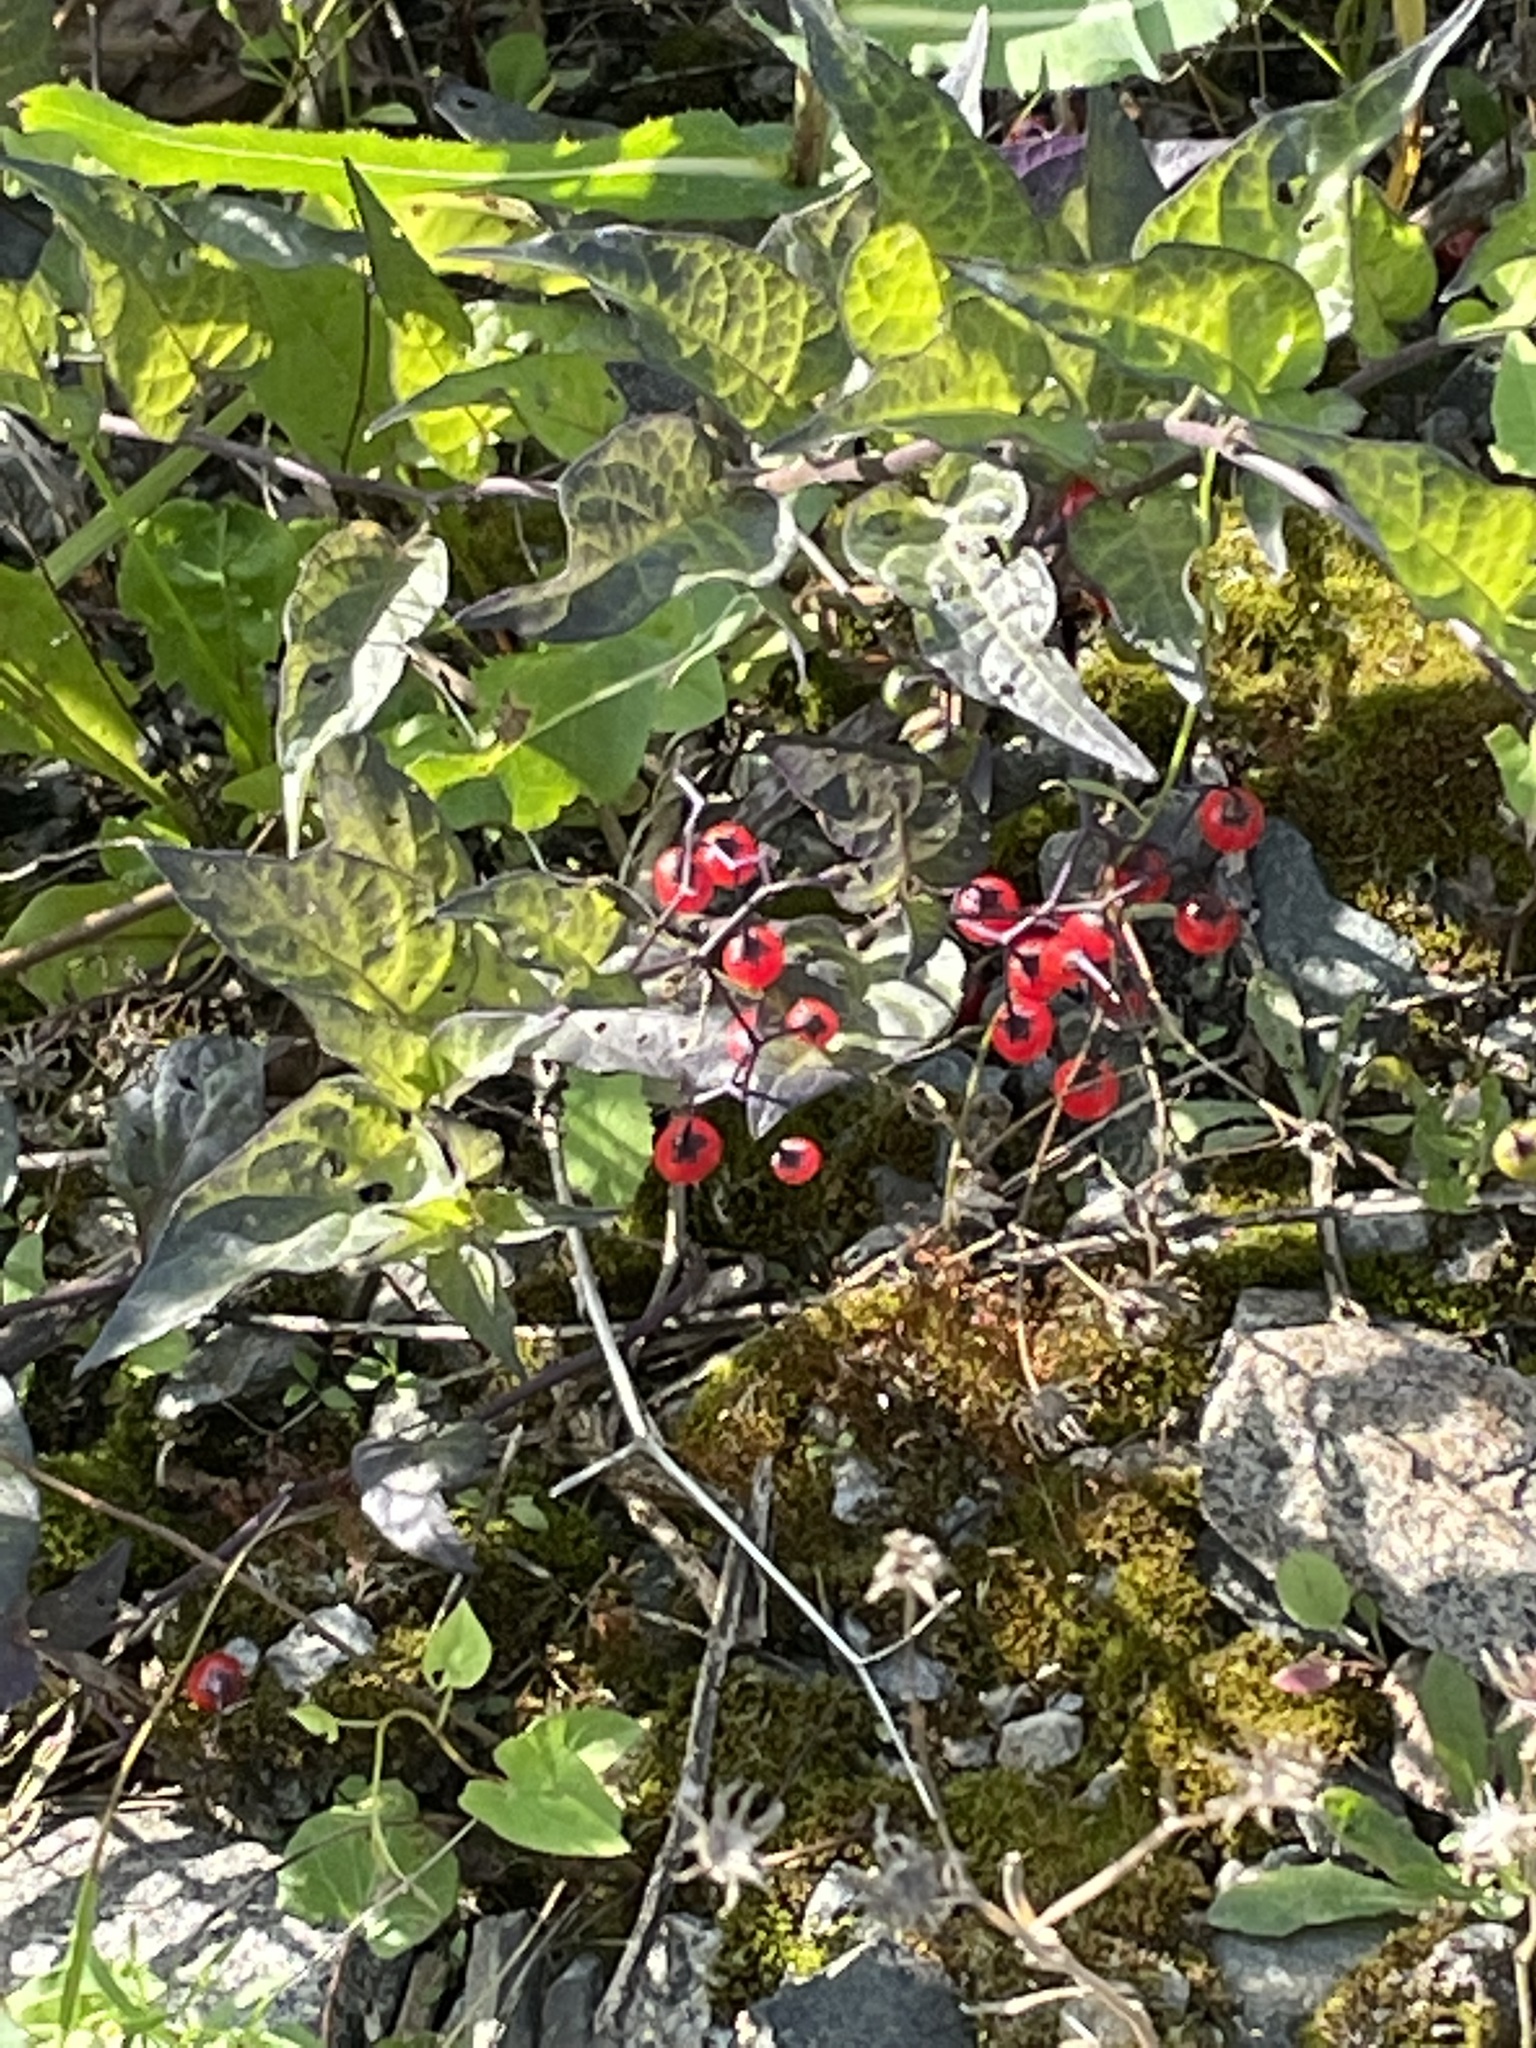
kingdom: Plantae
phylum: Tracheophyta
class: Magnoliopsida
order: Solanales
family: Solanaceae
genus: Solanum
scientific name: Solanum dulcamara
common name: Climbing nightshade
